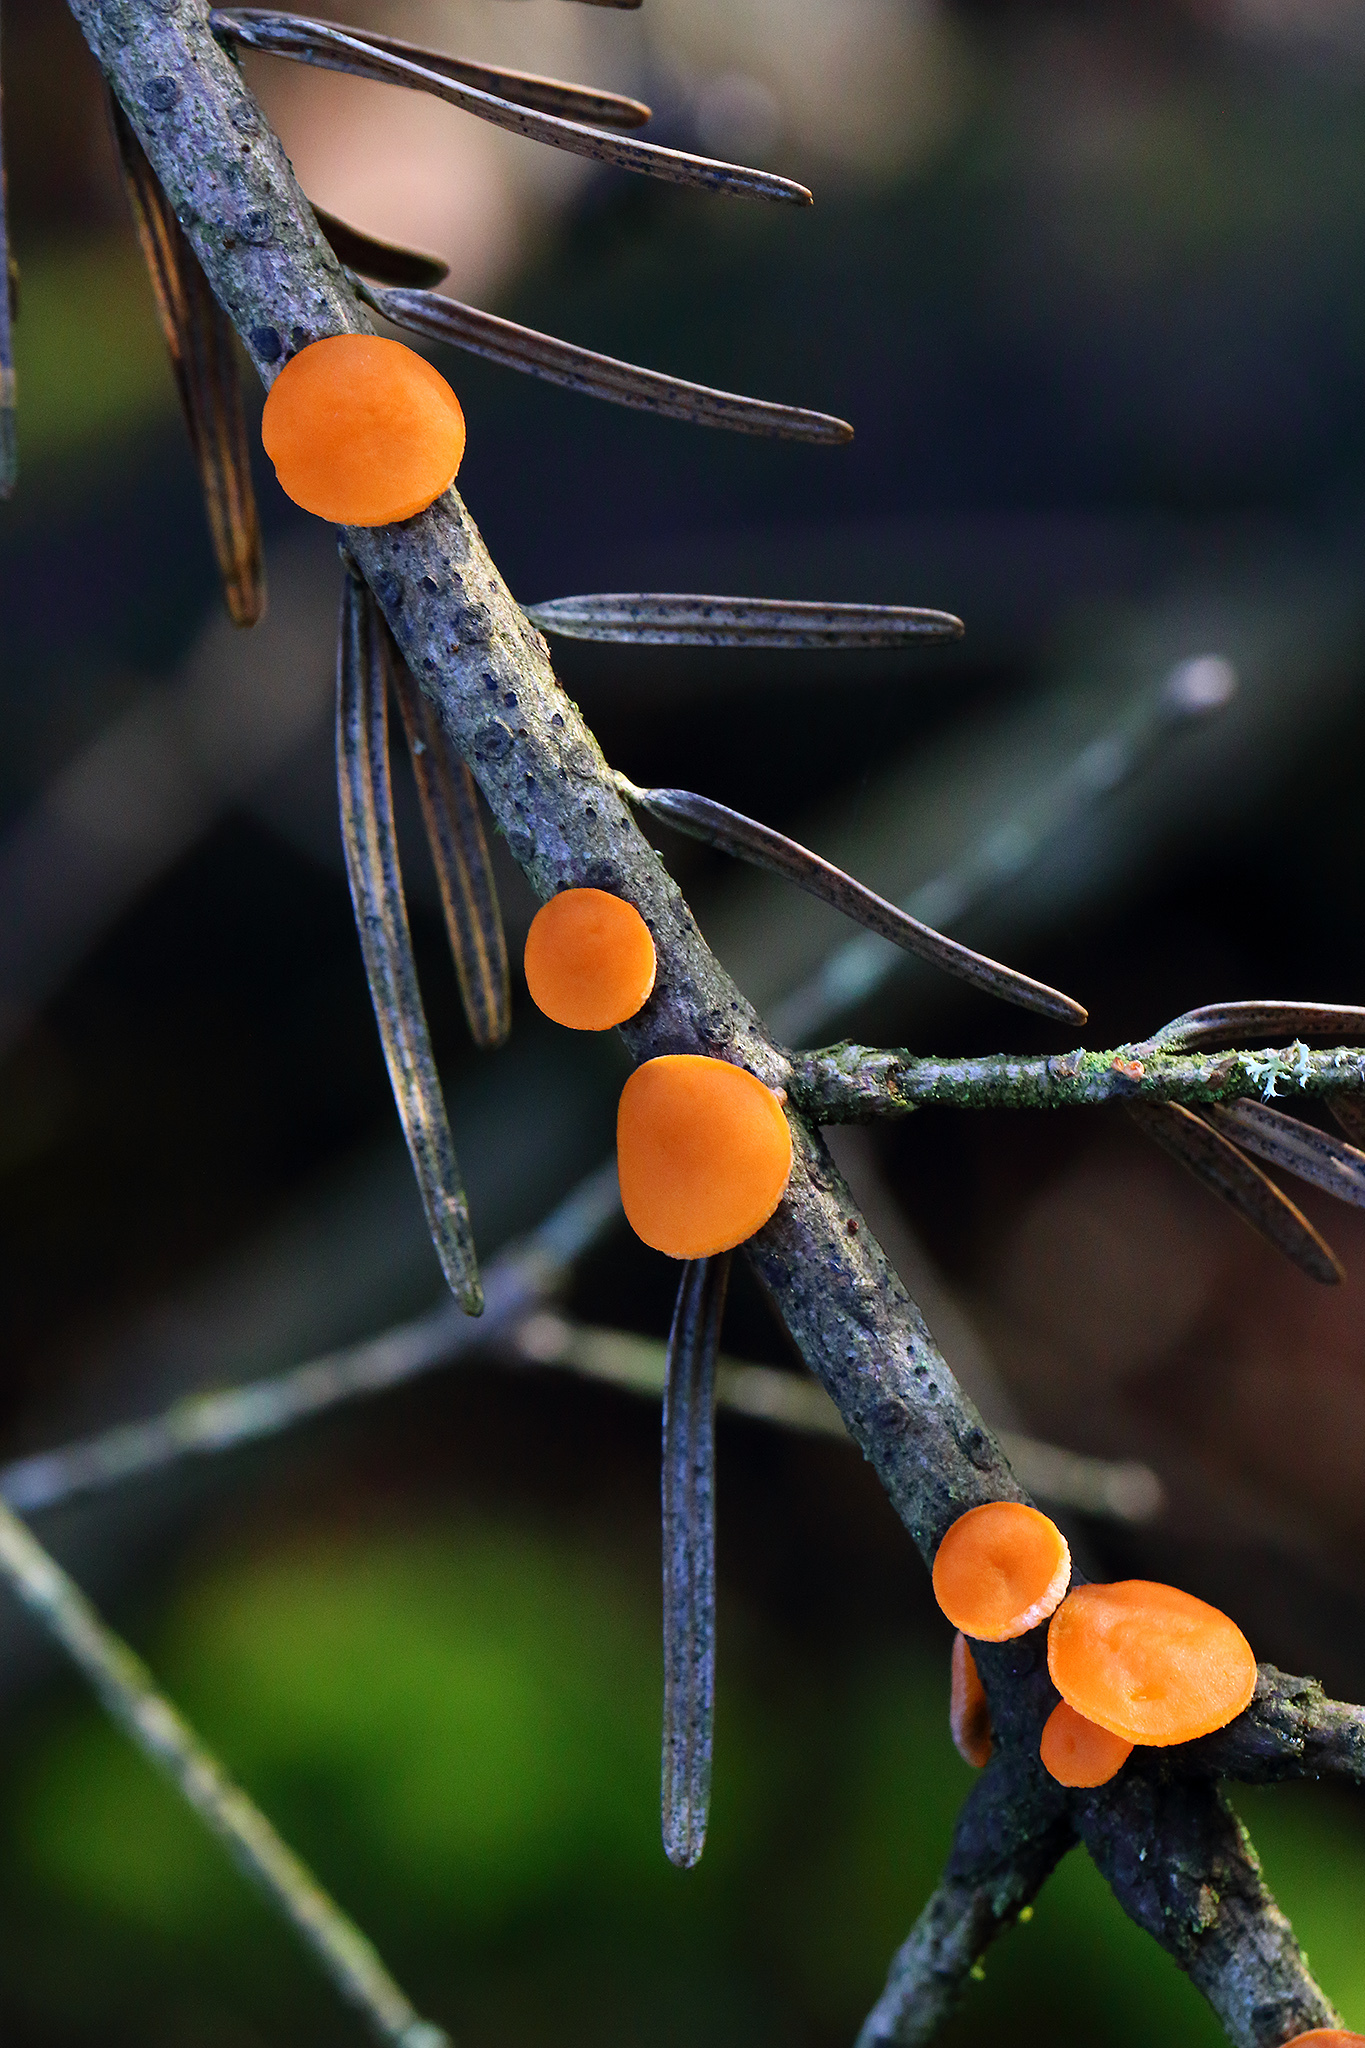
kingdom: Fungi
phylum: Ascomycota
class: Pezizomycetes
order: Pezizales
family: Sarcoscyphaceae
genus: Pithya
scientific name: Pithya vulgaris
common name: Fir disco
